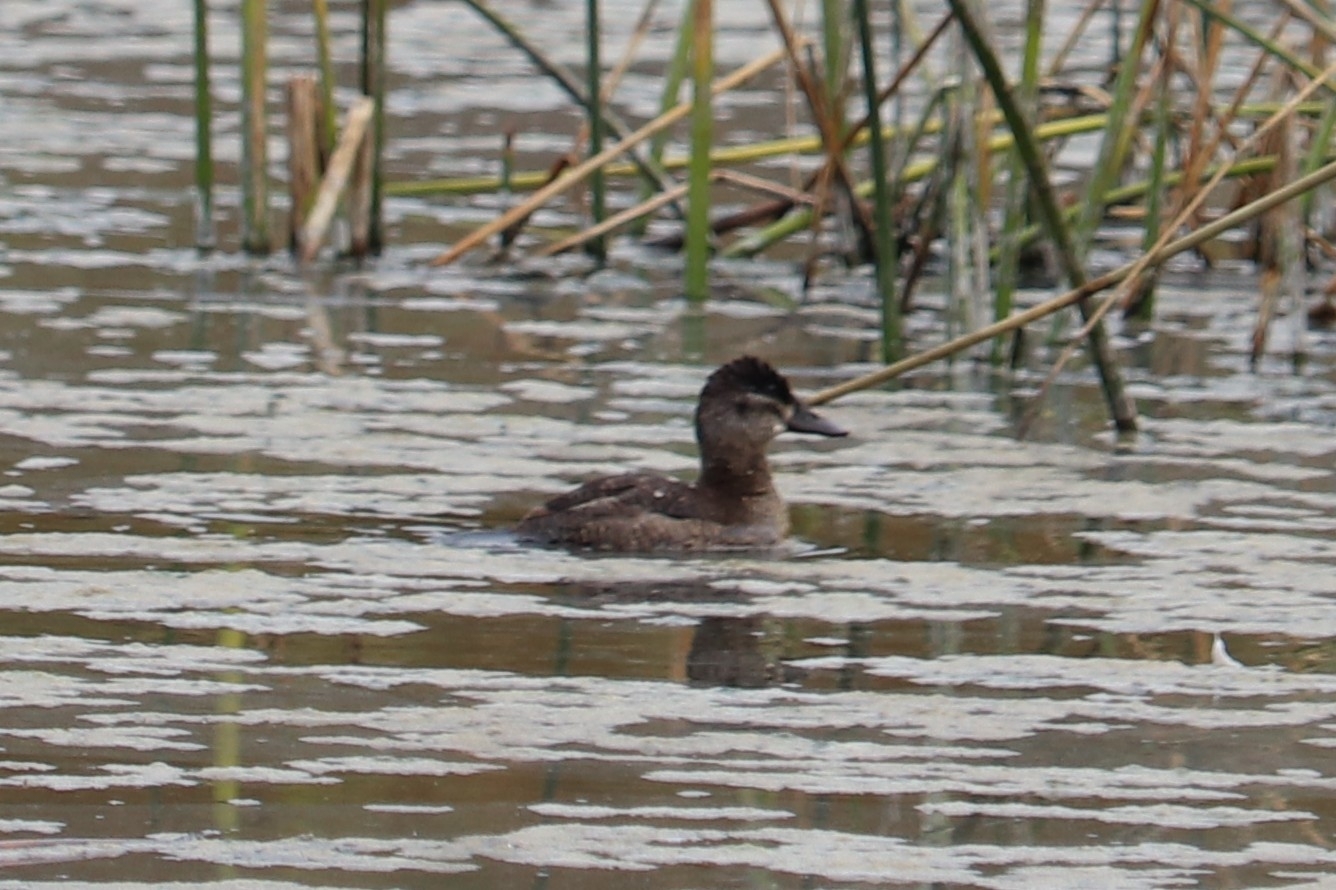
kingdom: Animalia
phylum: Chordata
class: Aves
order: Anseriformes
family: Anatidae
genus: Oxyura
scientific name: Oxyura jamaicensis
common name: Ruddy duck
